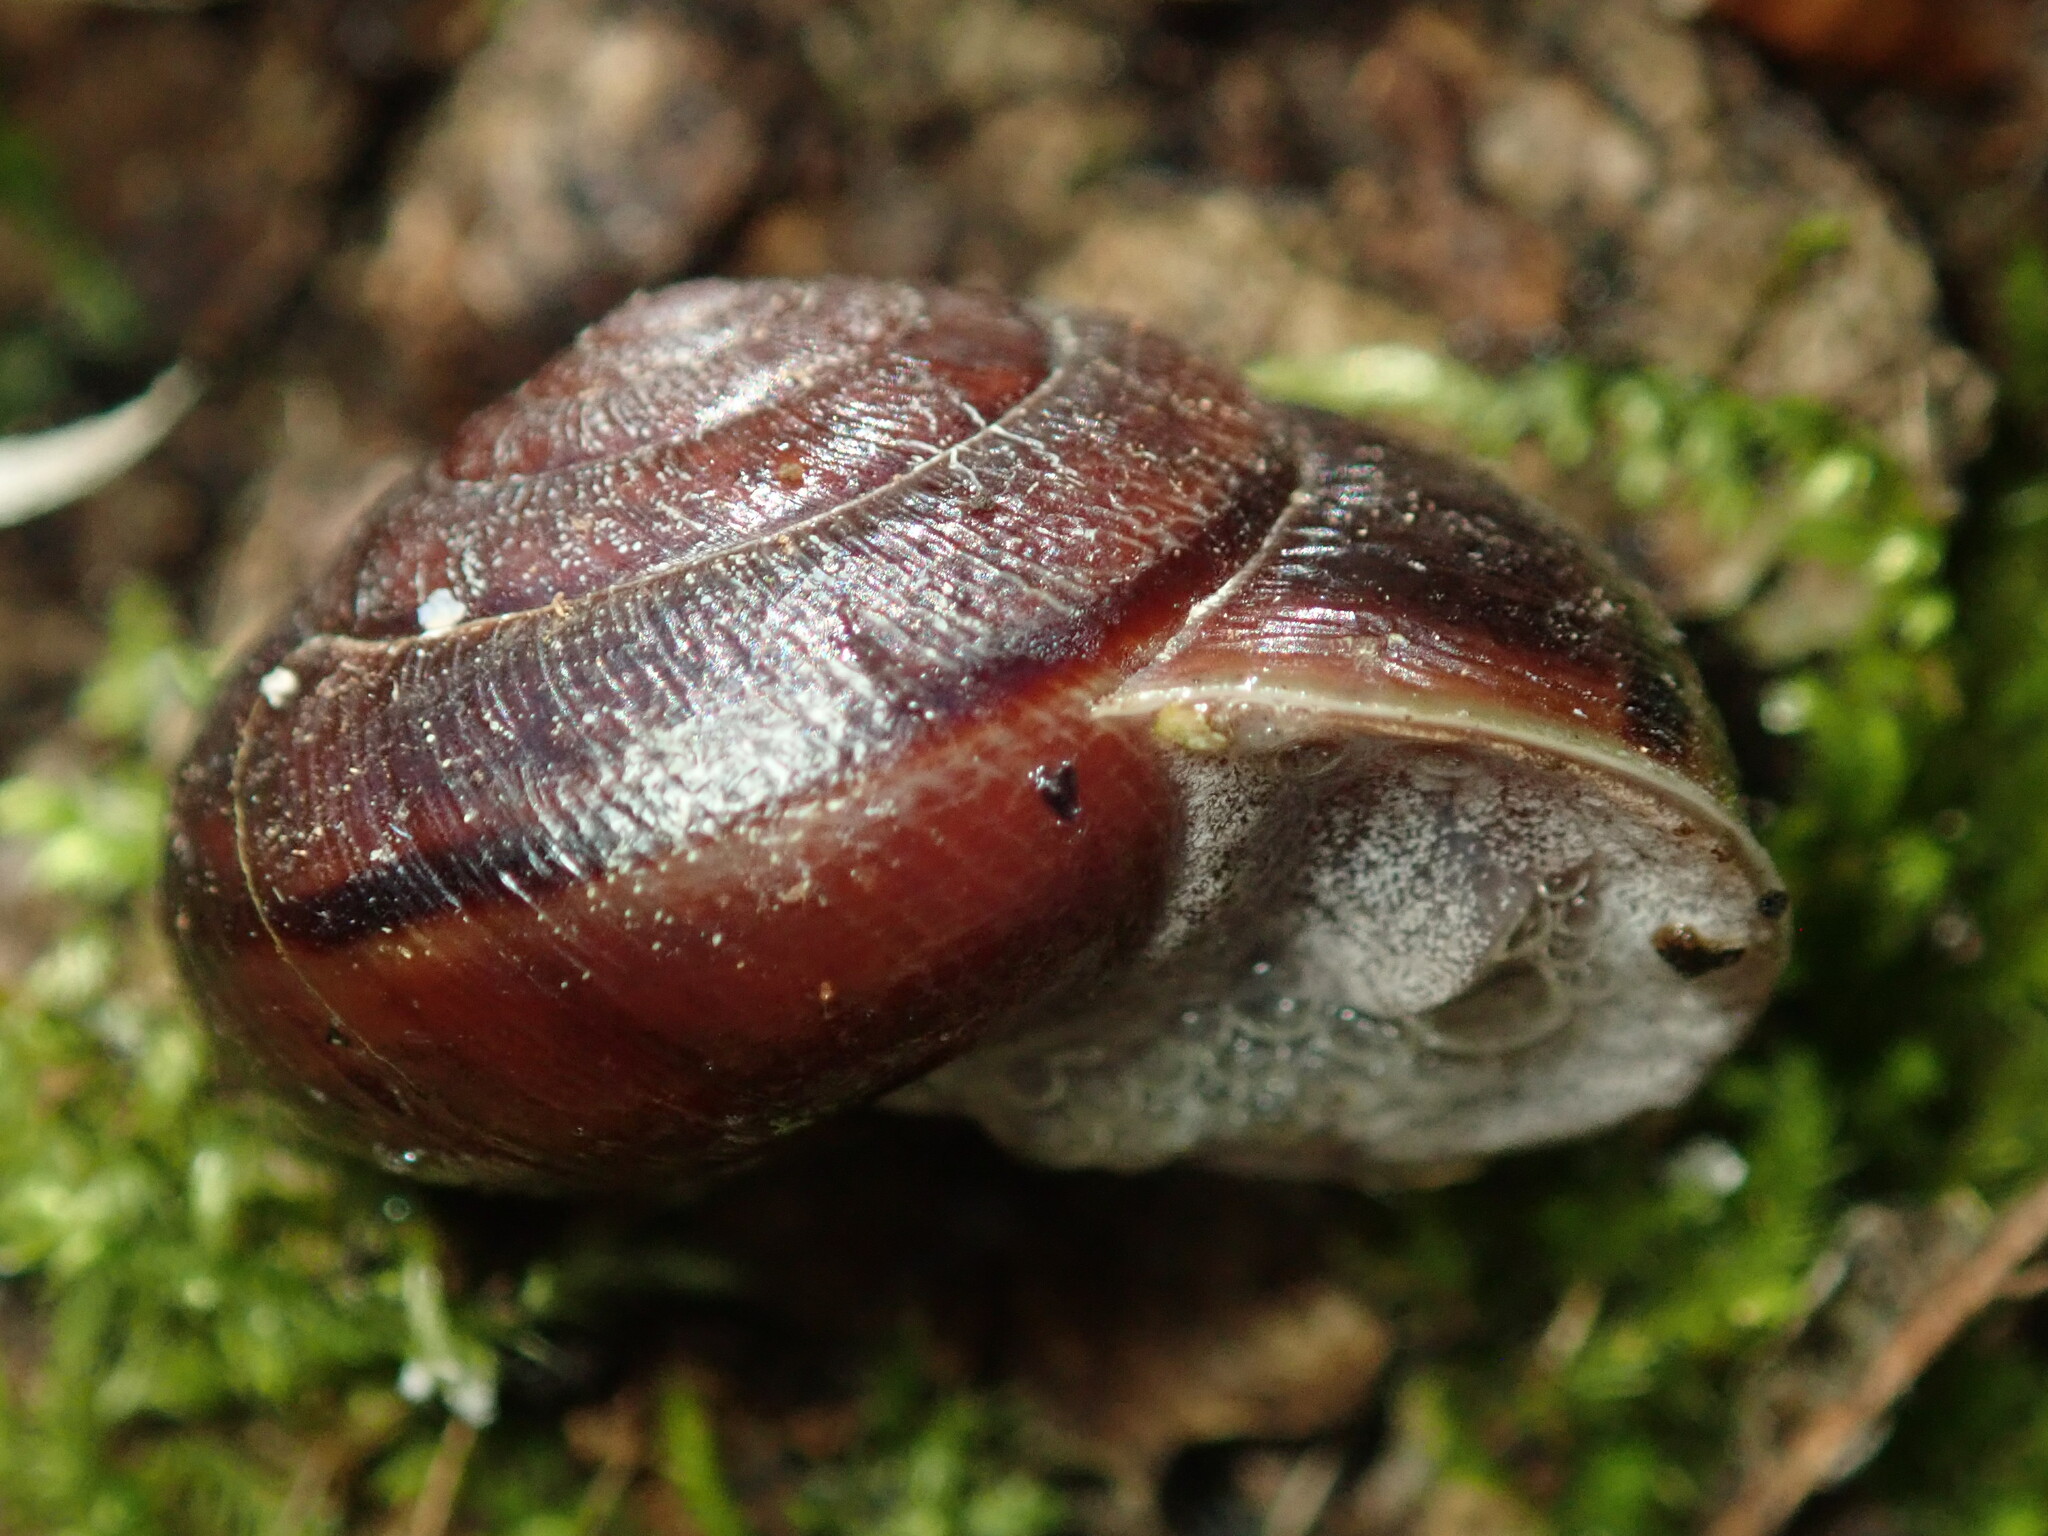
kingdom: Animalia
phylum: Mollusca
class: Gastropoda
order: Stylommatophora
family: Xanthonychidae
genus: Helminthoglypta
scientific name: Helminthoglypta sonoma
